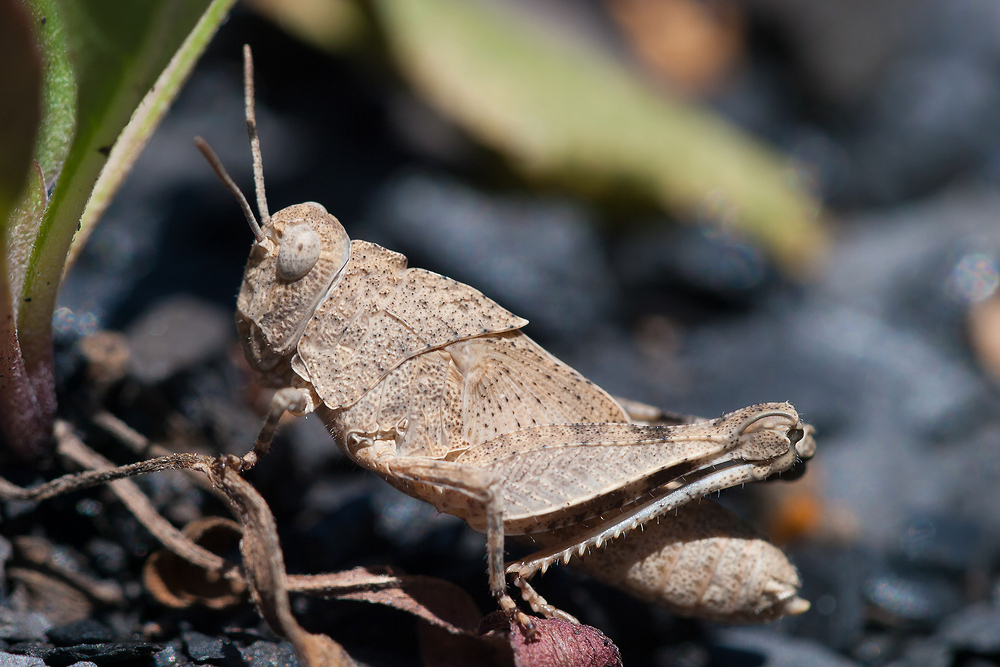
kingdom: Animalia
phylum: Arthropoda
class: Insecta
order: Orthoptera
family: Acrididae
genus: Oedipoda
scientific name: Oedipoda caerulescens
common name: Blue-winged grasshopper
